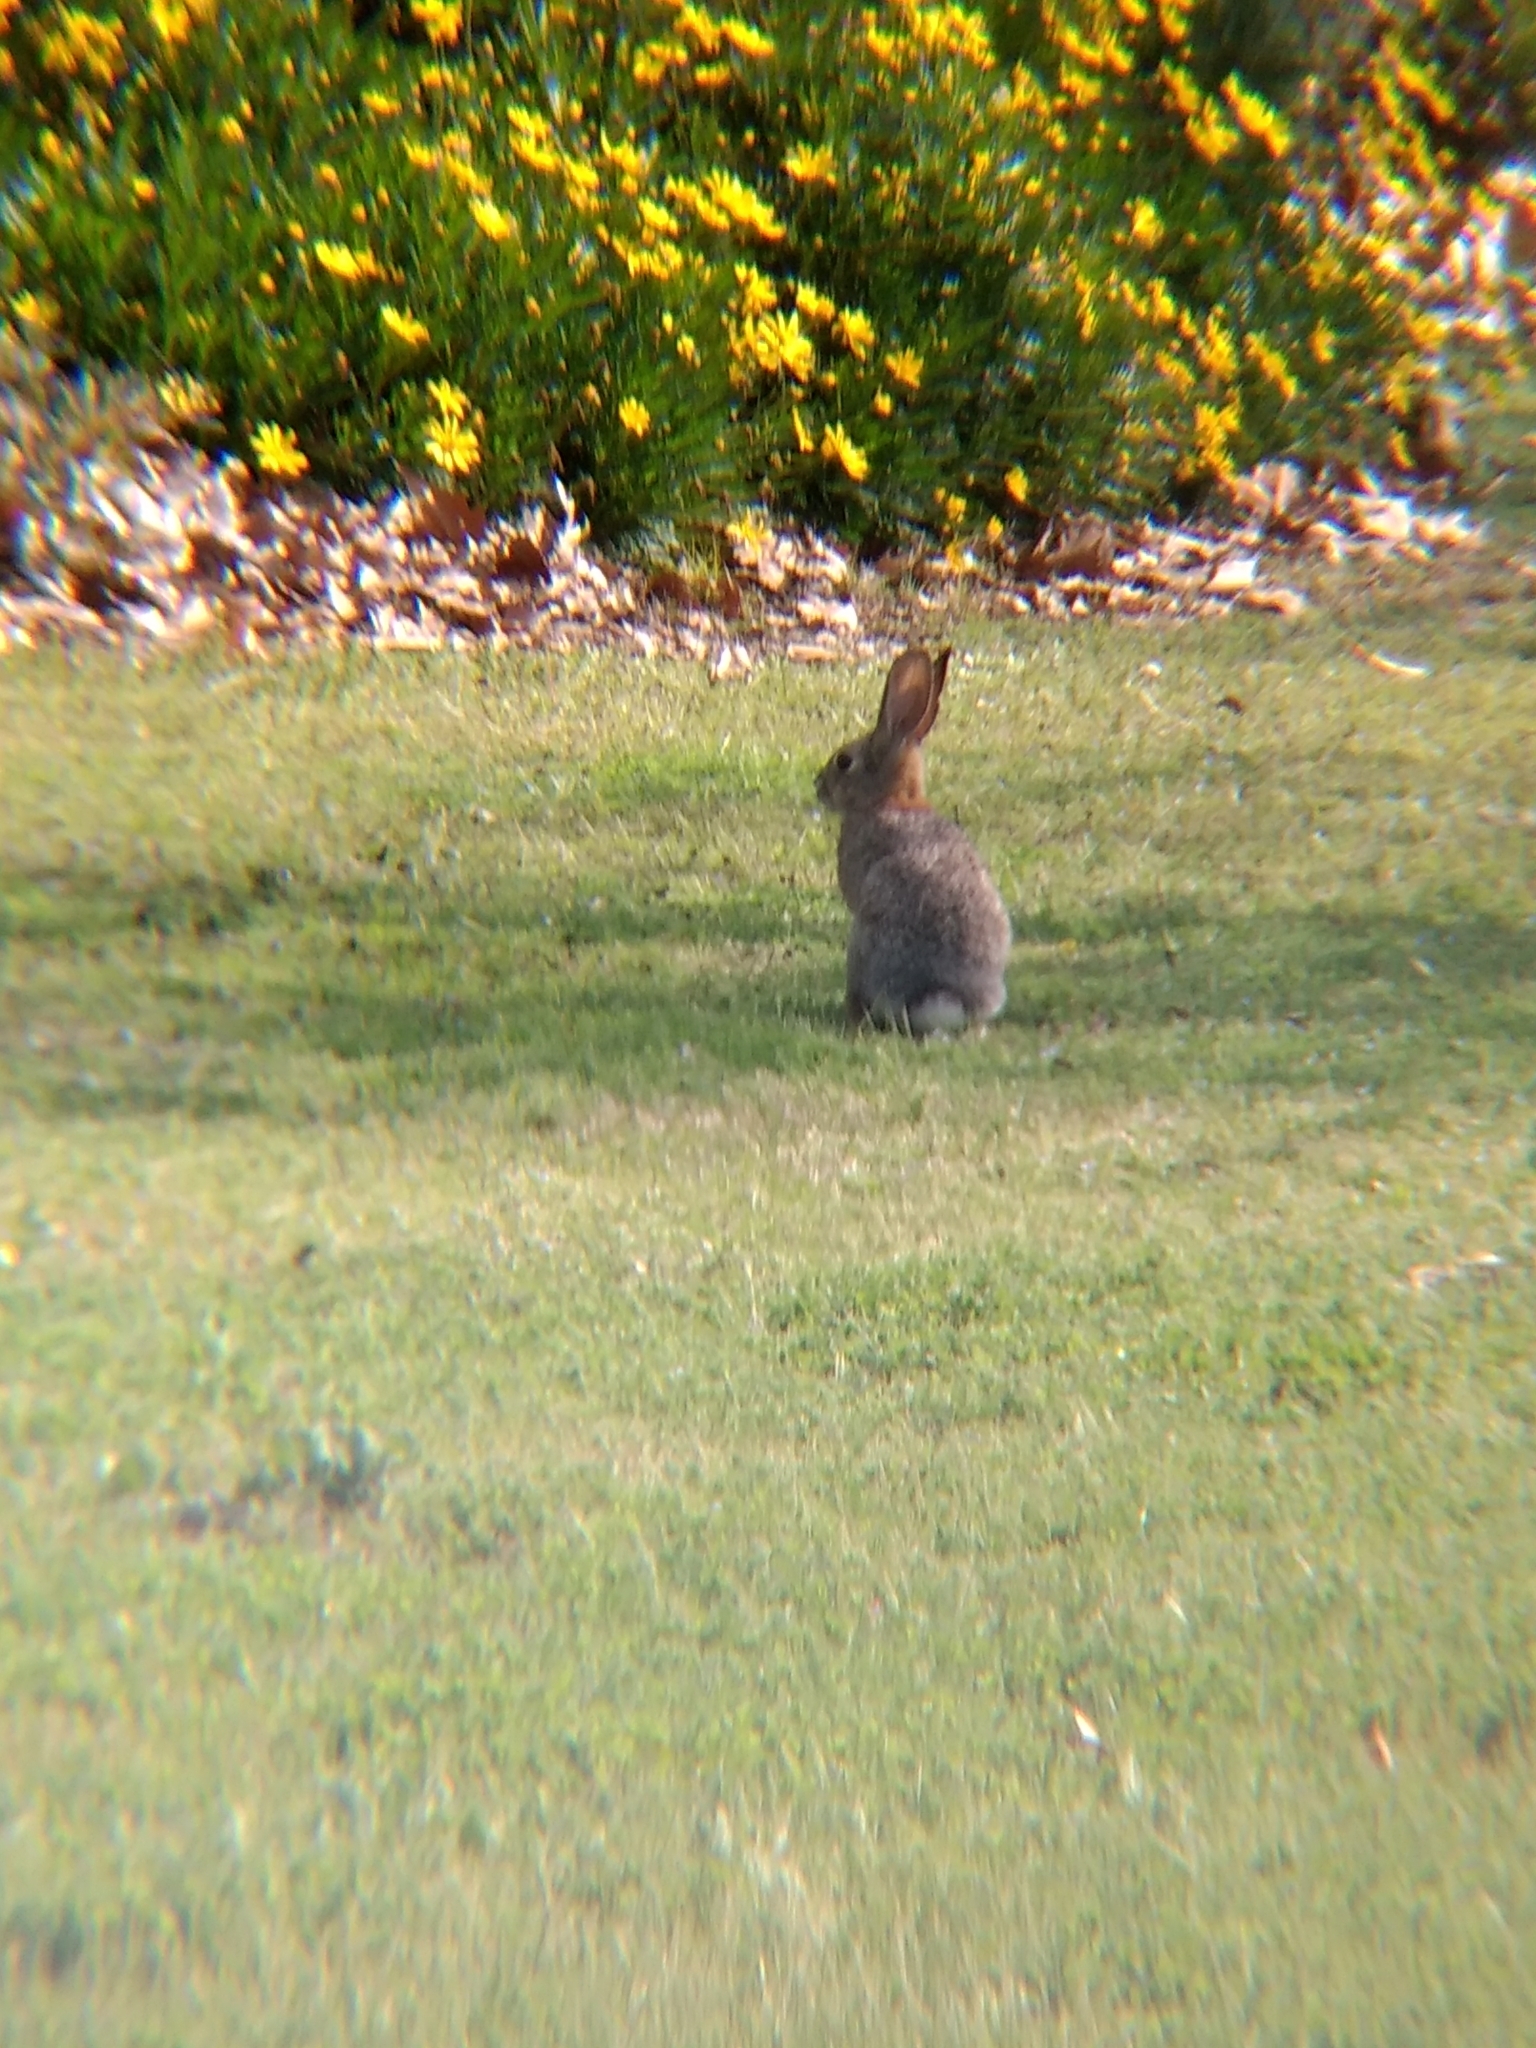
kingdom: Animalia
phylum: Chordata
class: Mammalia
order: Lagomorpha
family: Leporidae
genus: Sylvilagus
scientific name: Sylvilagus audubonii
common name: Desert cottontail
